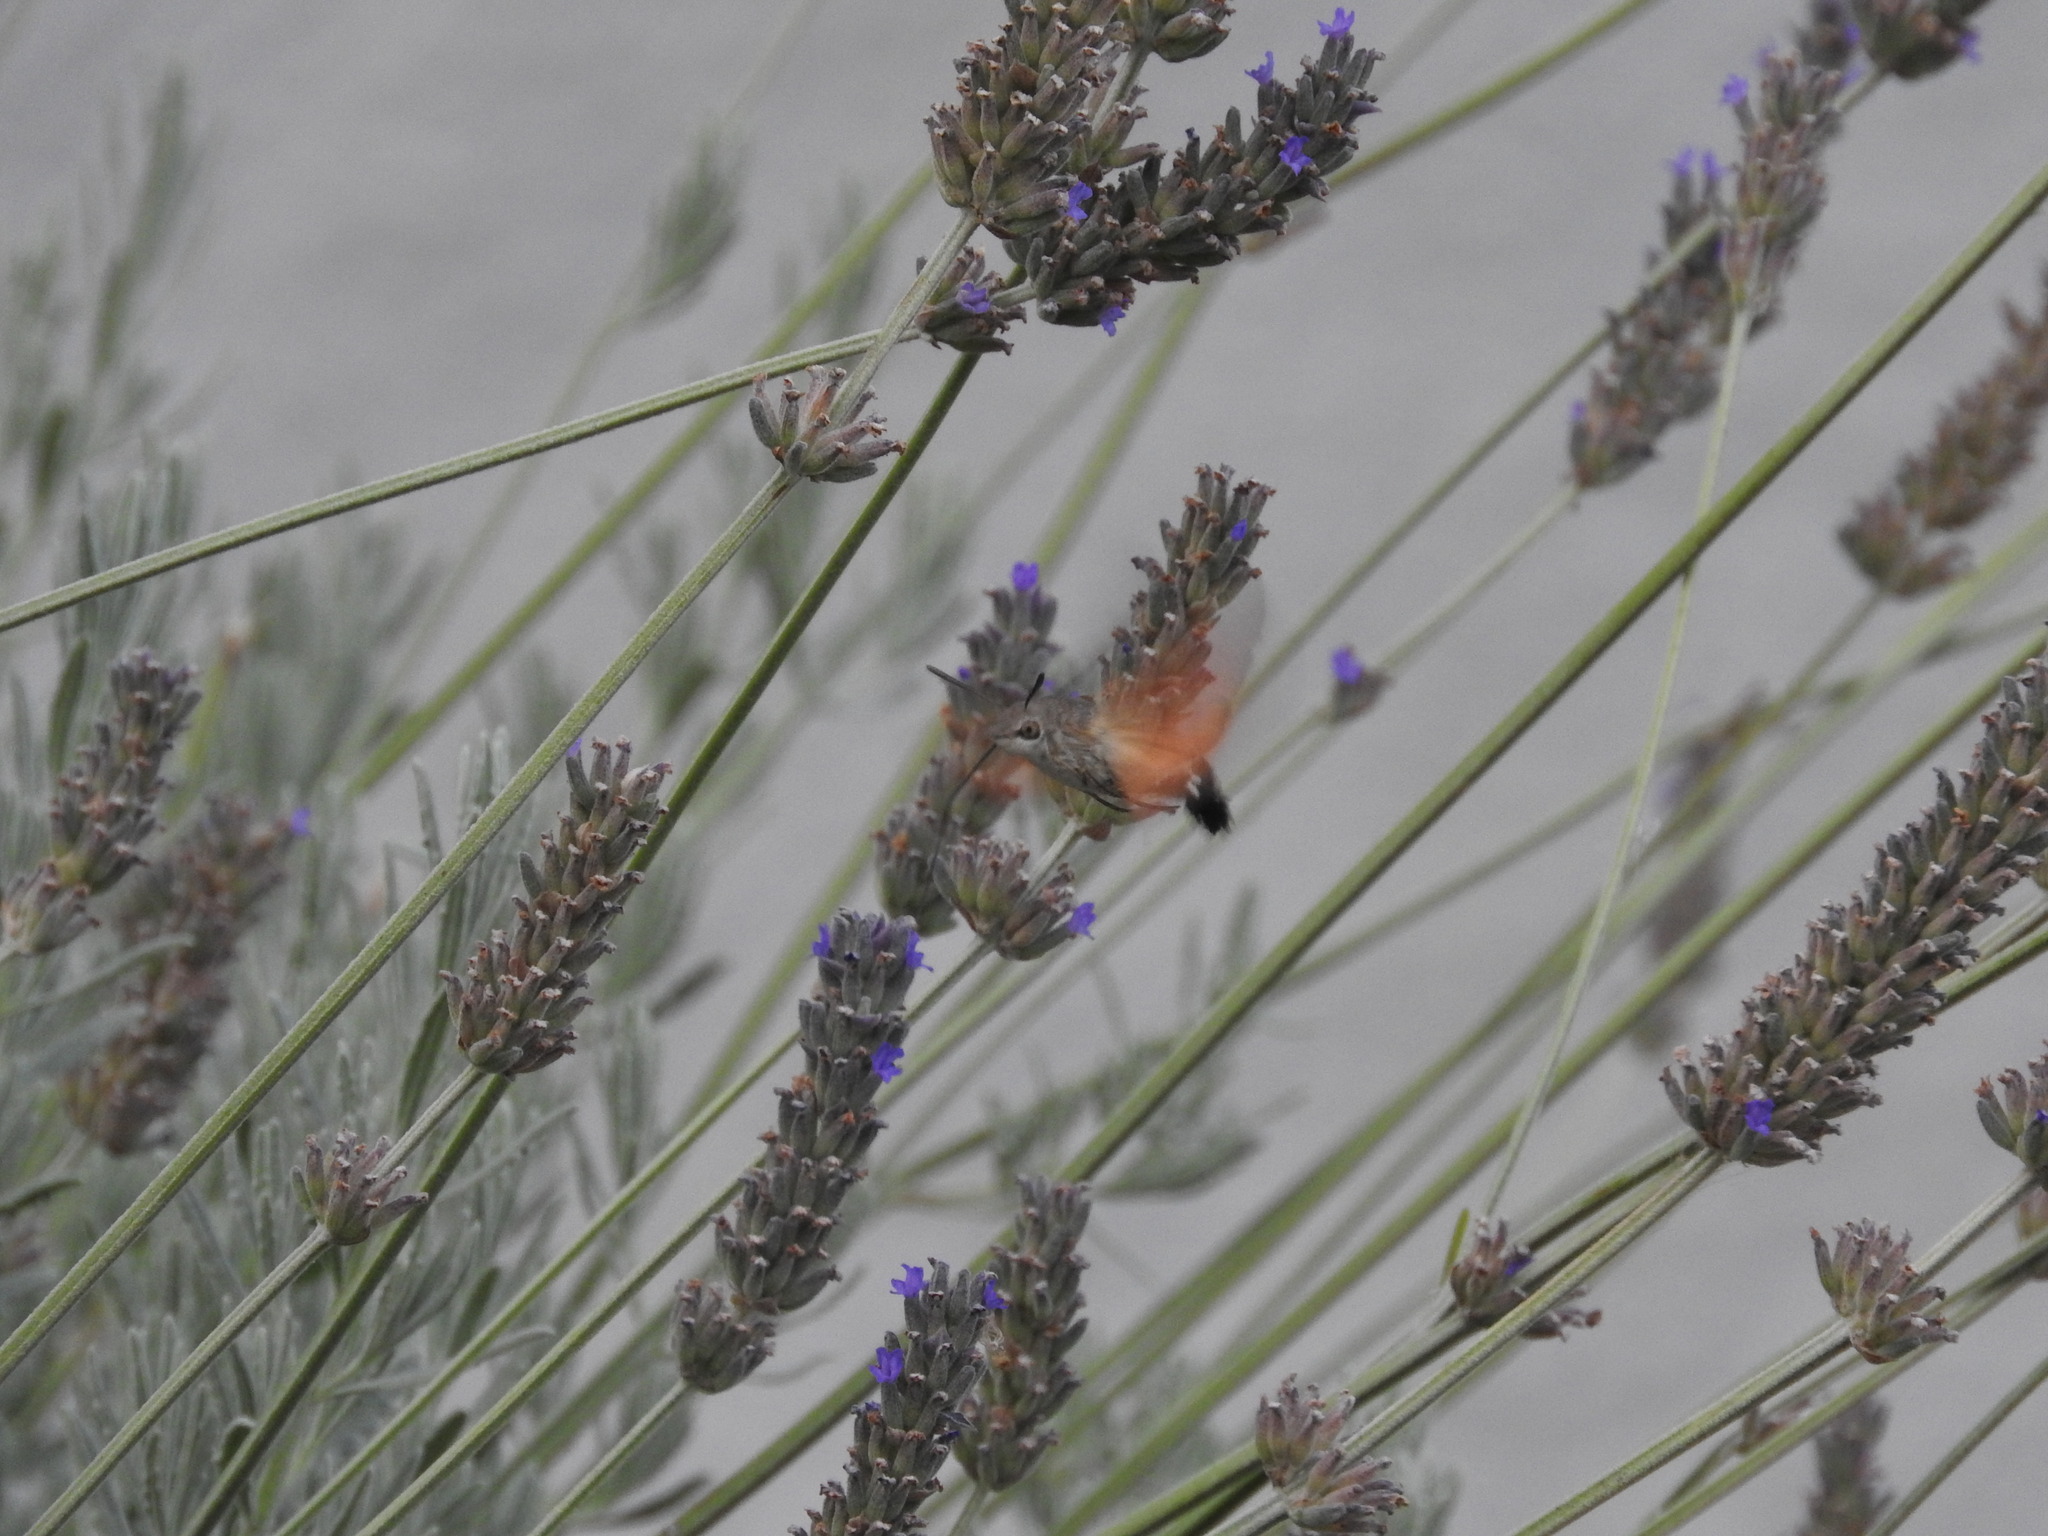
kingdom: Animalia
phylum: Arthropoda
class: Insecta
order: Lepidoptera
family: Sphingidae
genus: Macroglossum
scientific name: Macroglossum stellatarum
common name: Humming-bird hawk-moth
